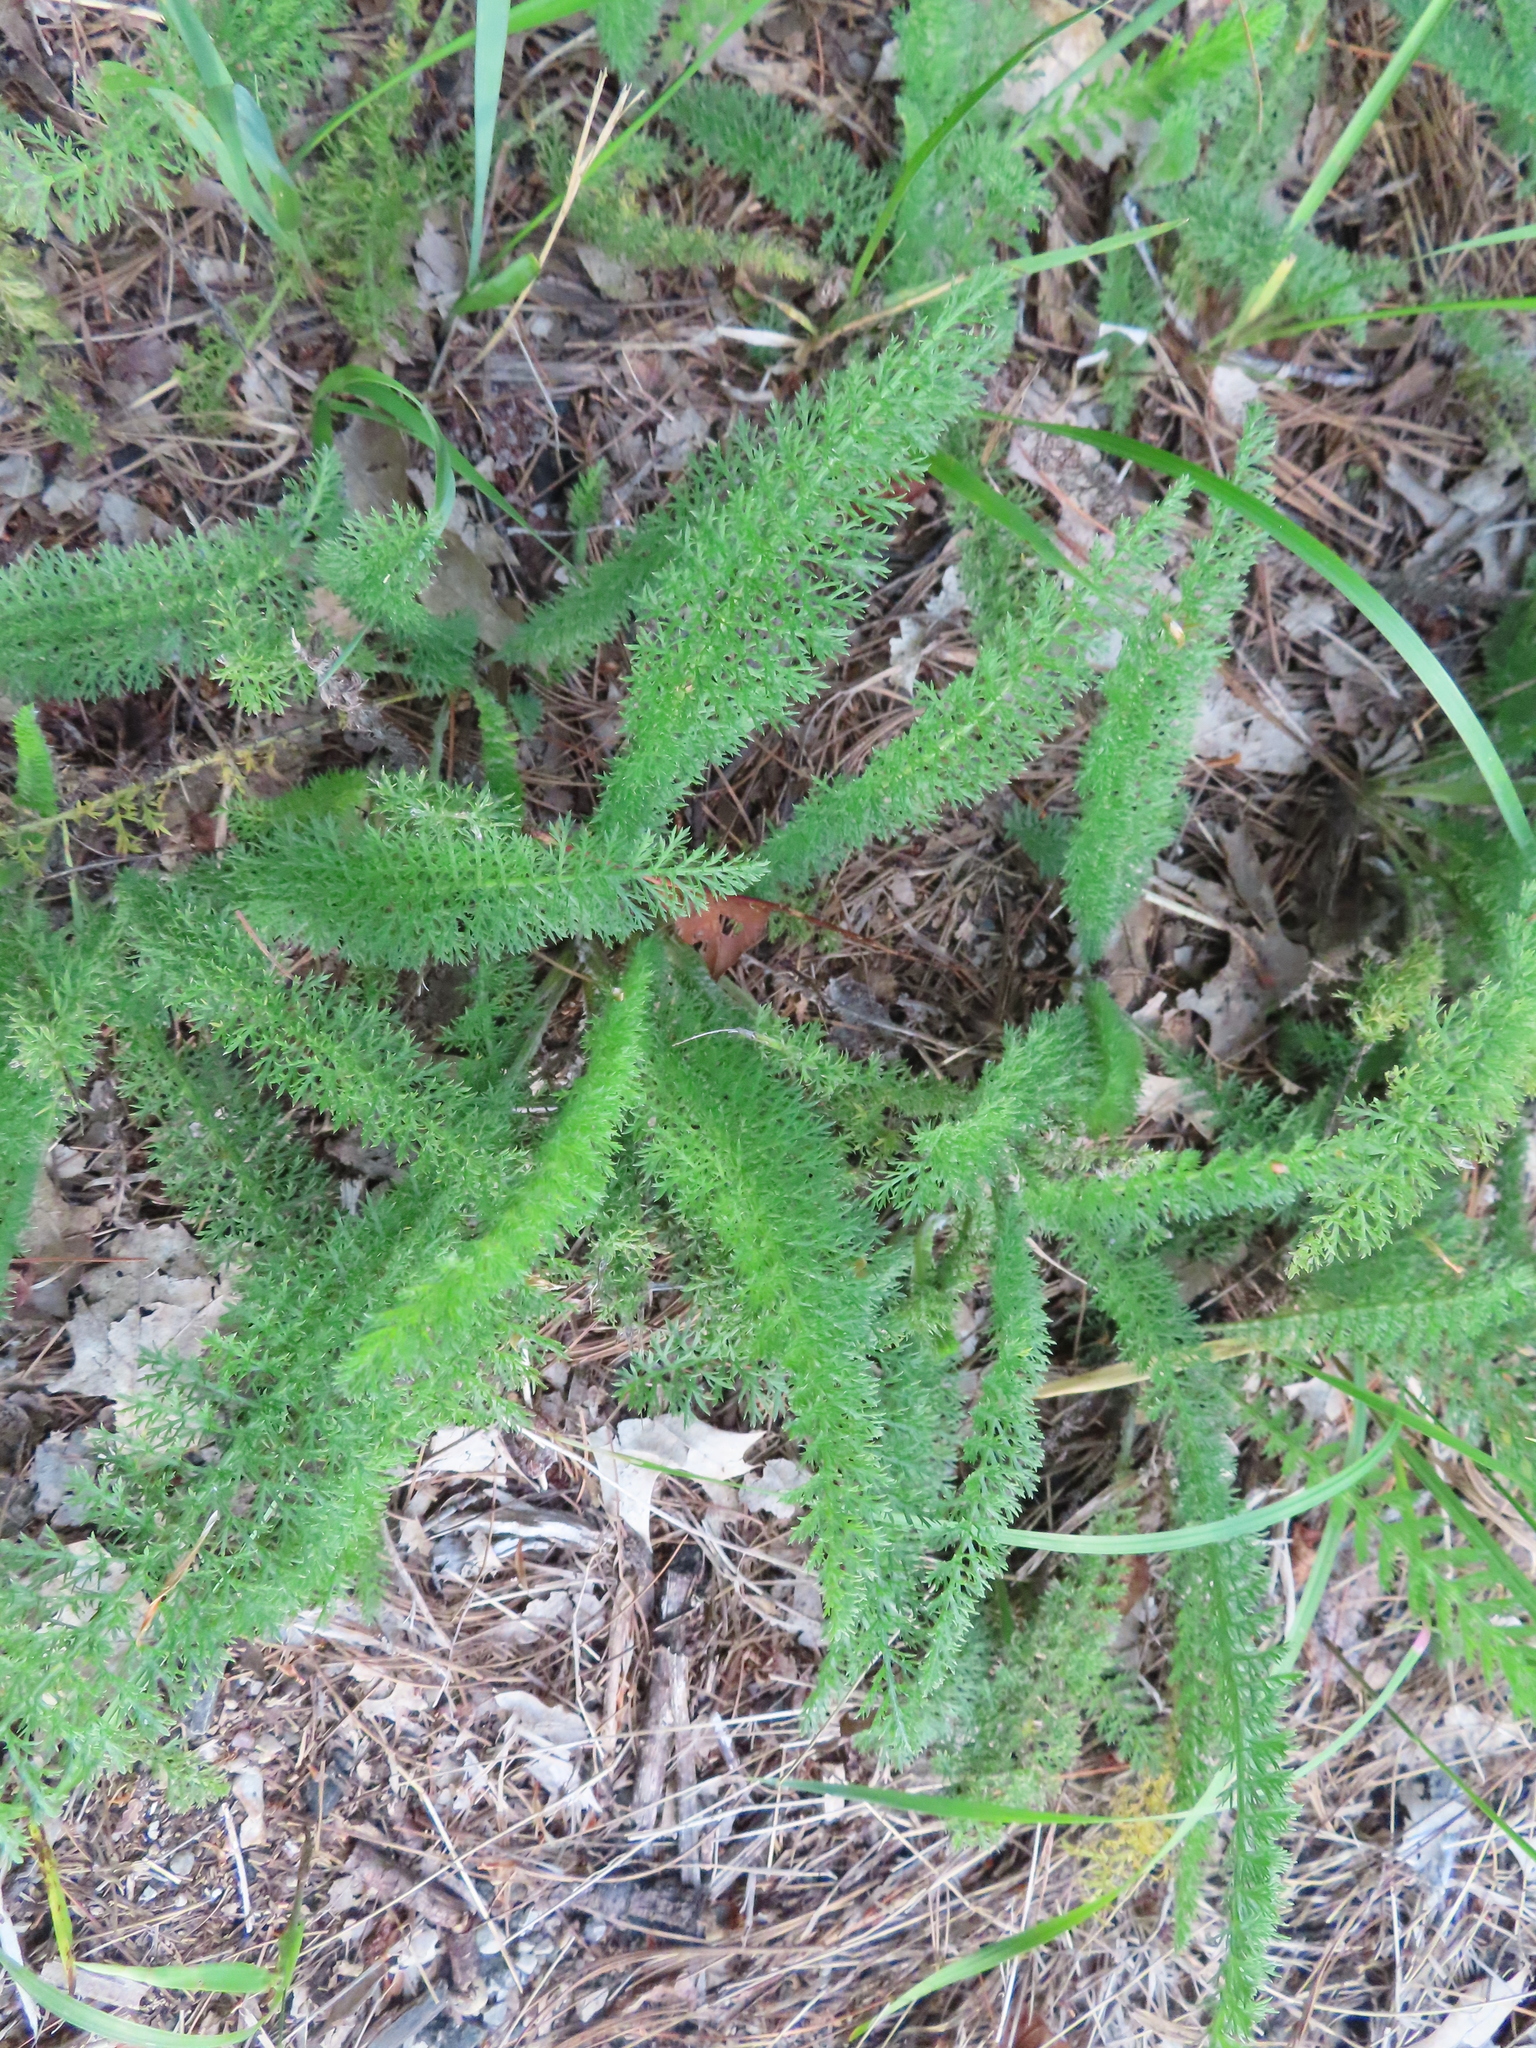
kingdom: Plantae
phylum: Tracheophyta
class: Magnoliopsida
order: Asterales
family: Asteraceae
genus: Achillea
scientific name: Achillea millefolium
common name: Yarrow
